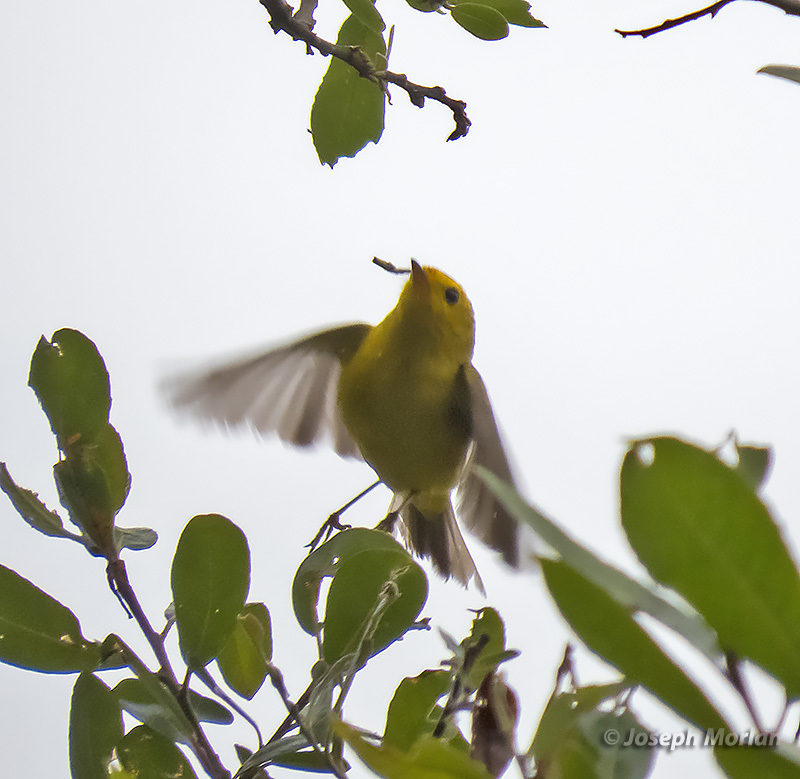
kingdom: Animalia
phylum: Chordata
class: Aves
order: Passeriformes
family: Parulidae
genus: Cardellina
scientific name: Cardellina pusilla
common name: Wilson's warbler
